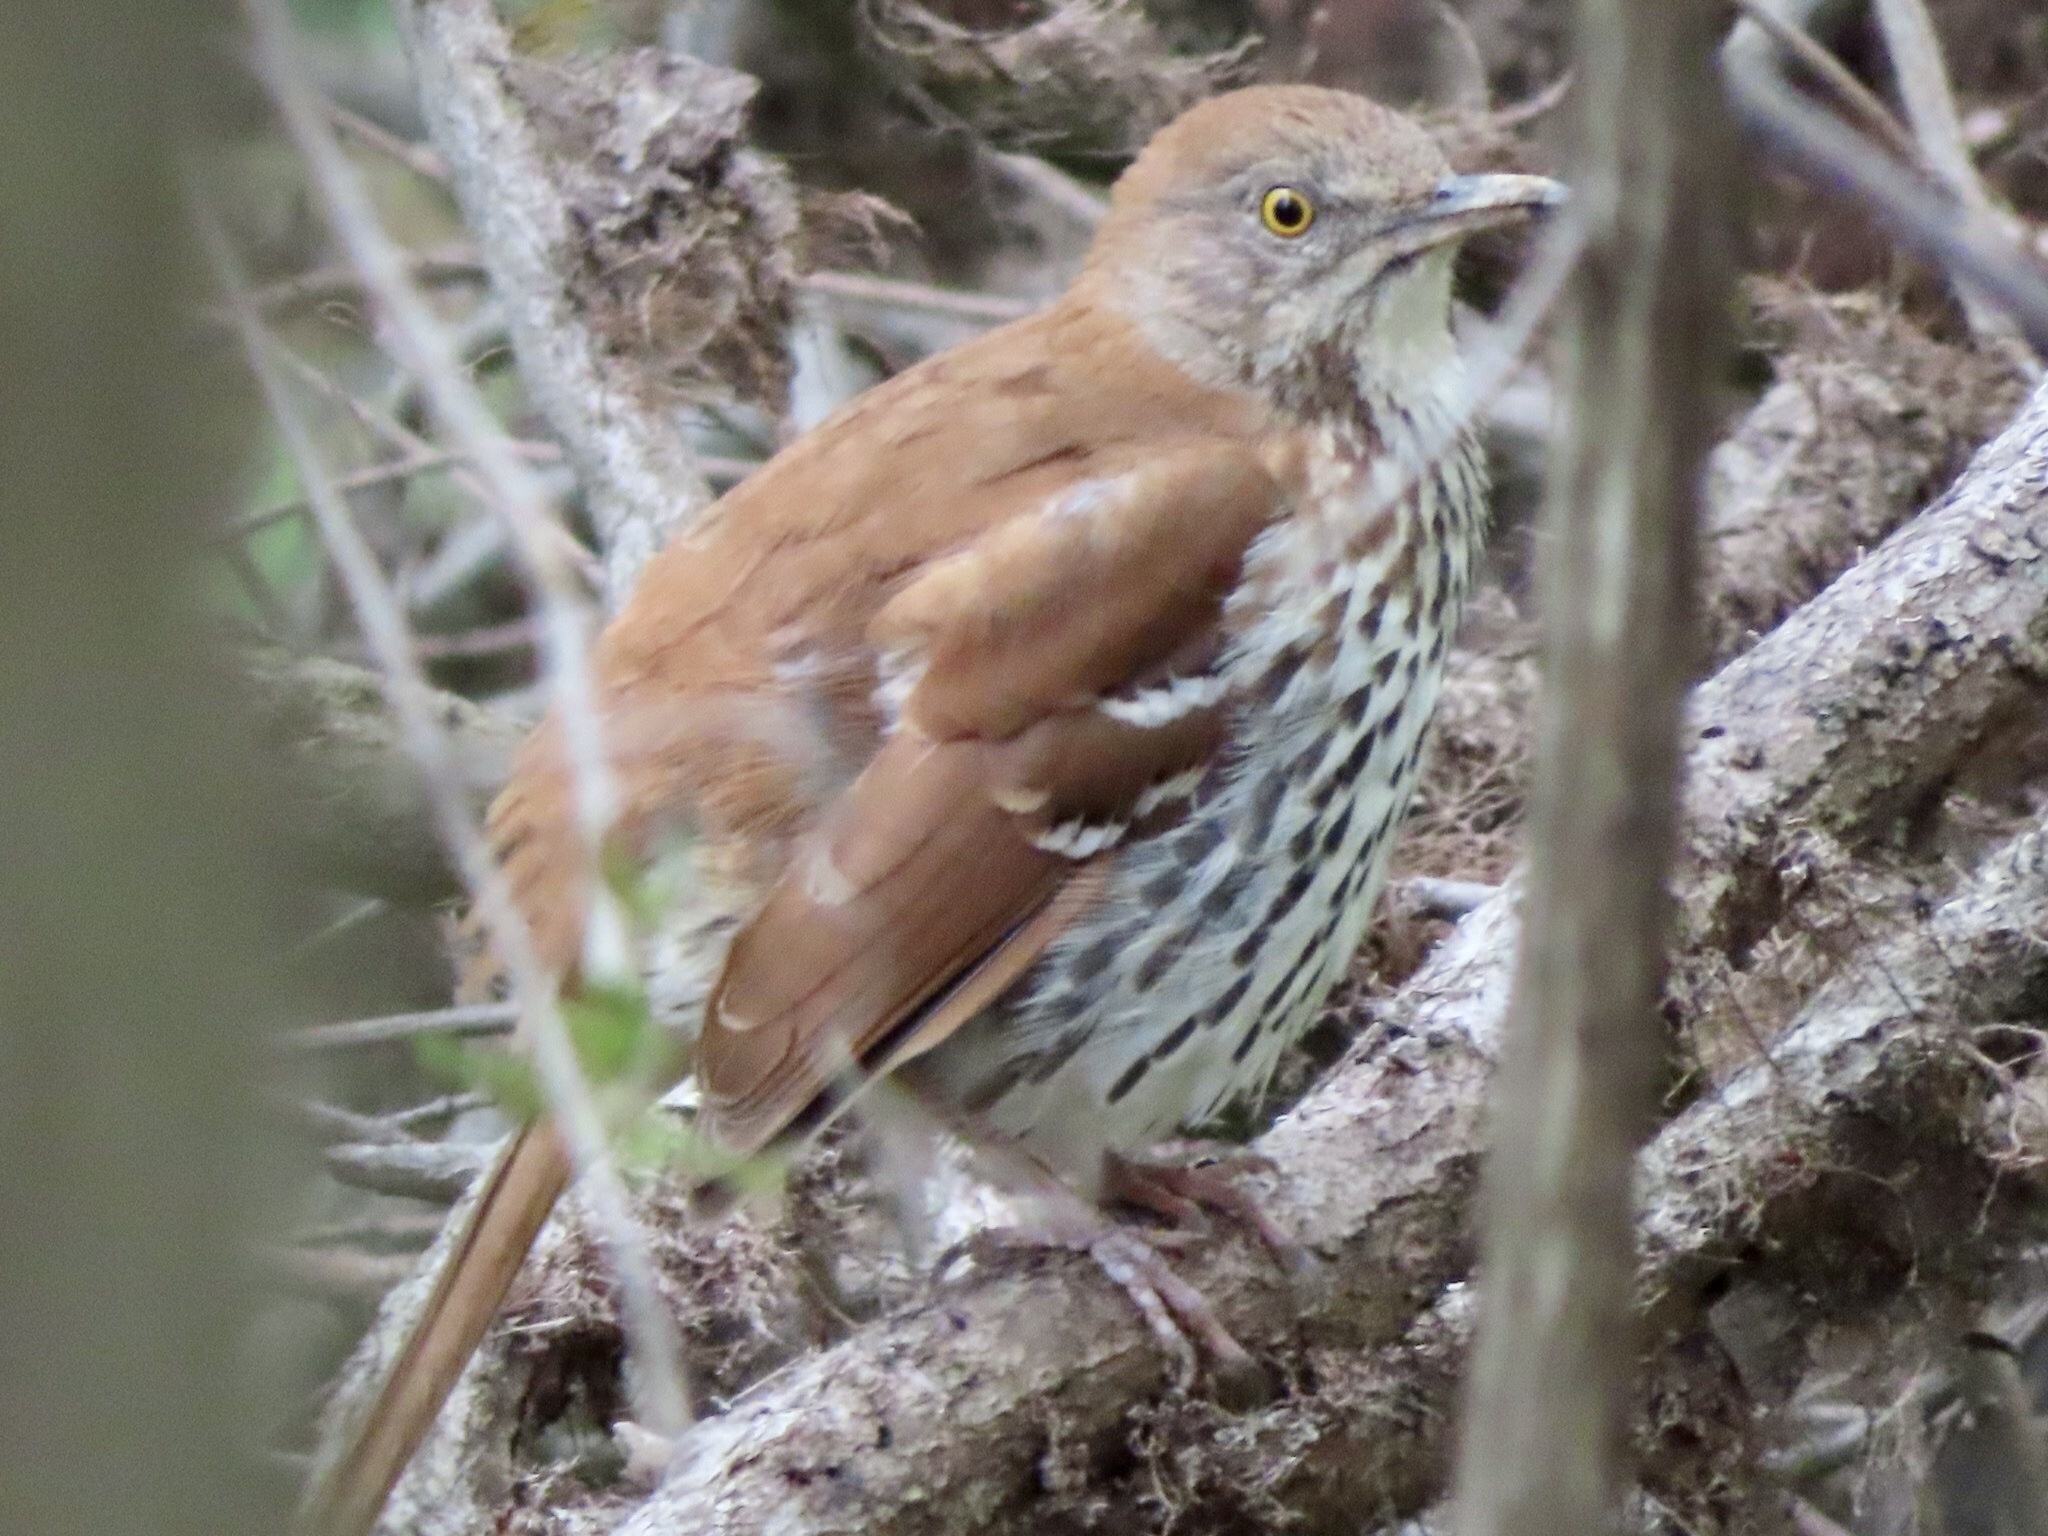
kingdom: Animalia
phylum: Chordata
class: Aves
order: Passeriformes
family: Mimidae
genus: Toxostoma
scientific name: Toxostoma rufum
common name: Brown thrasher
